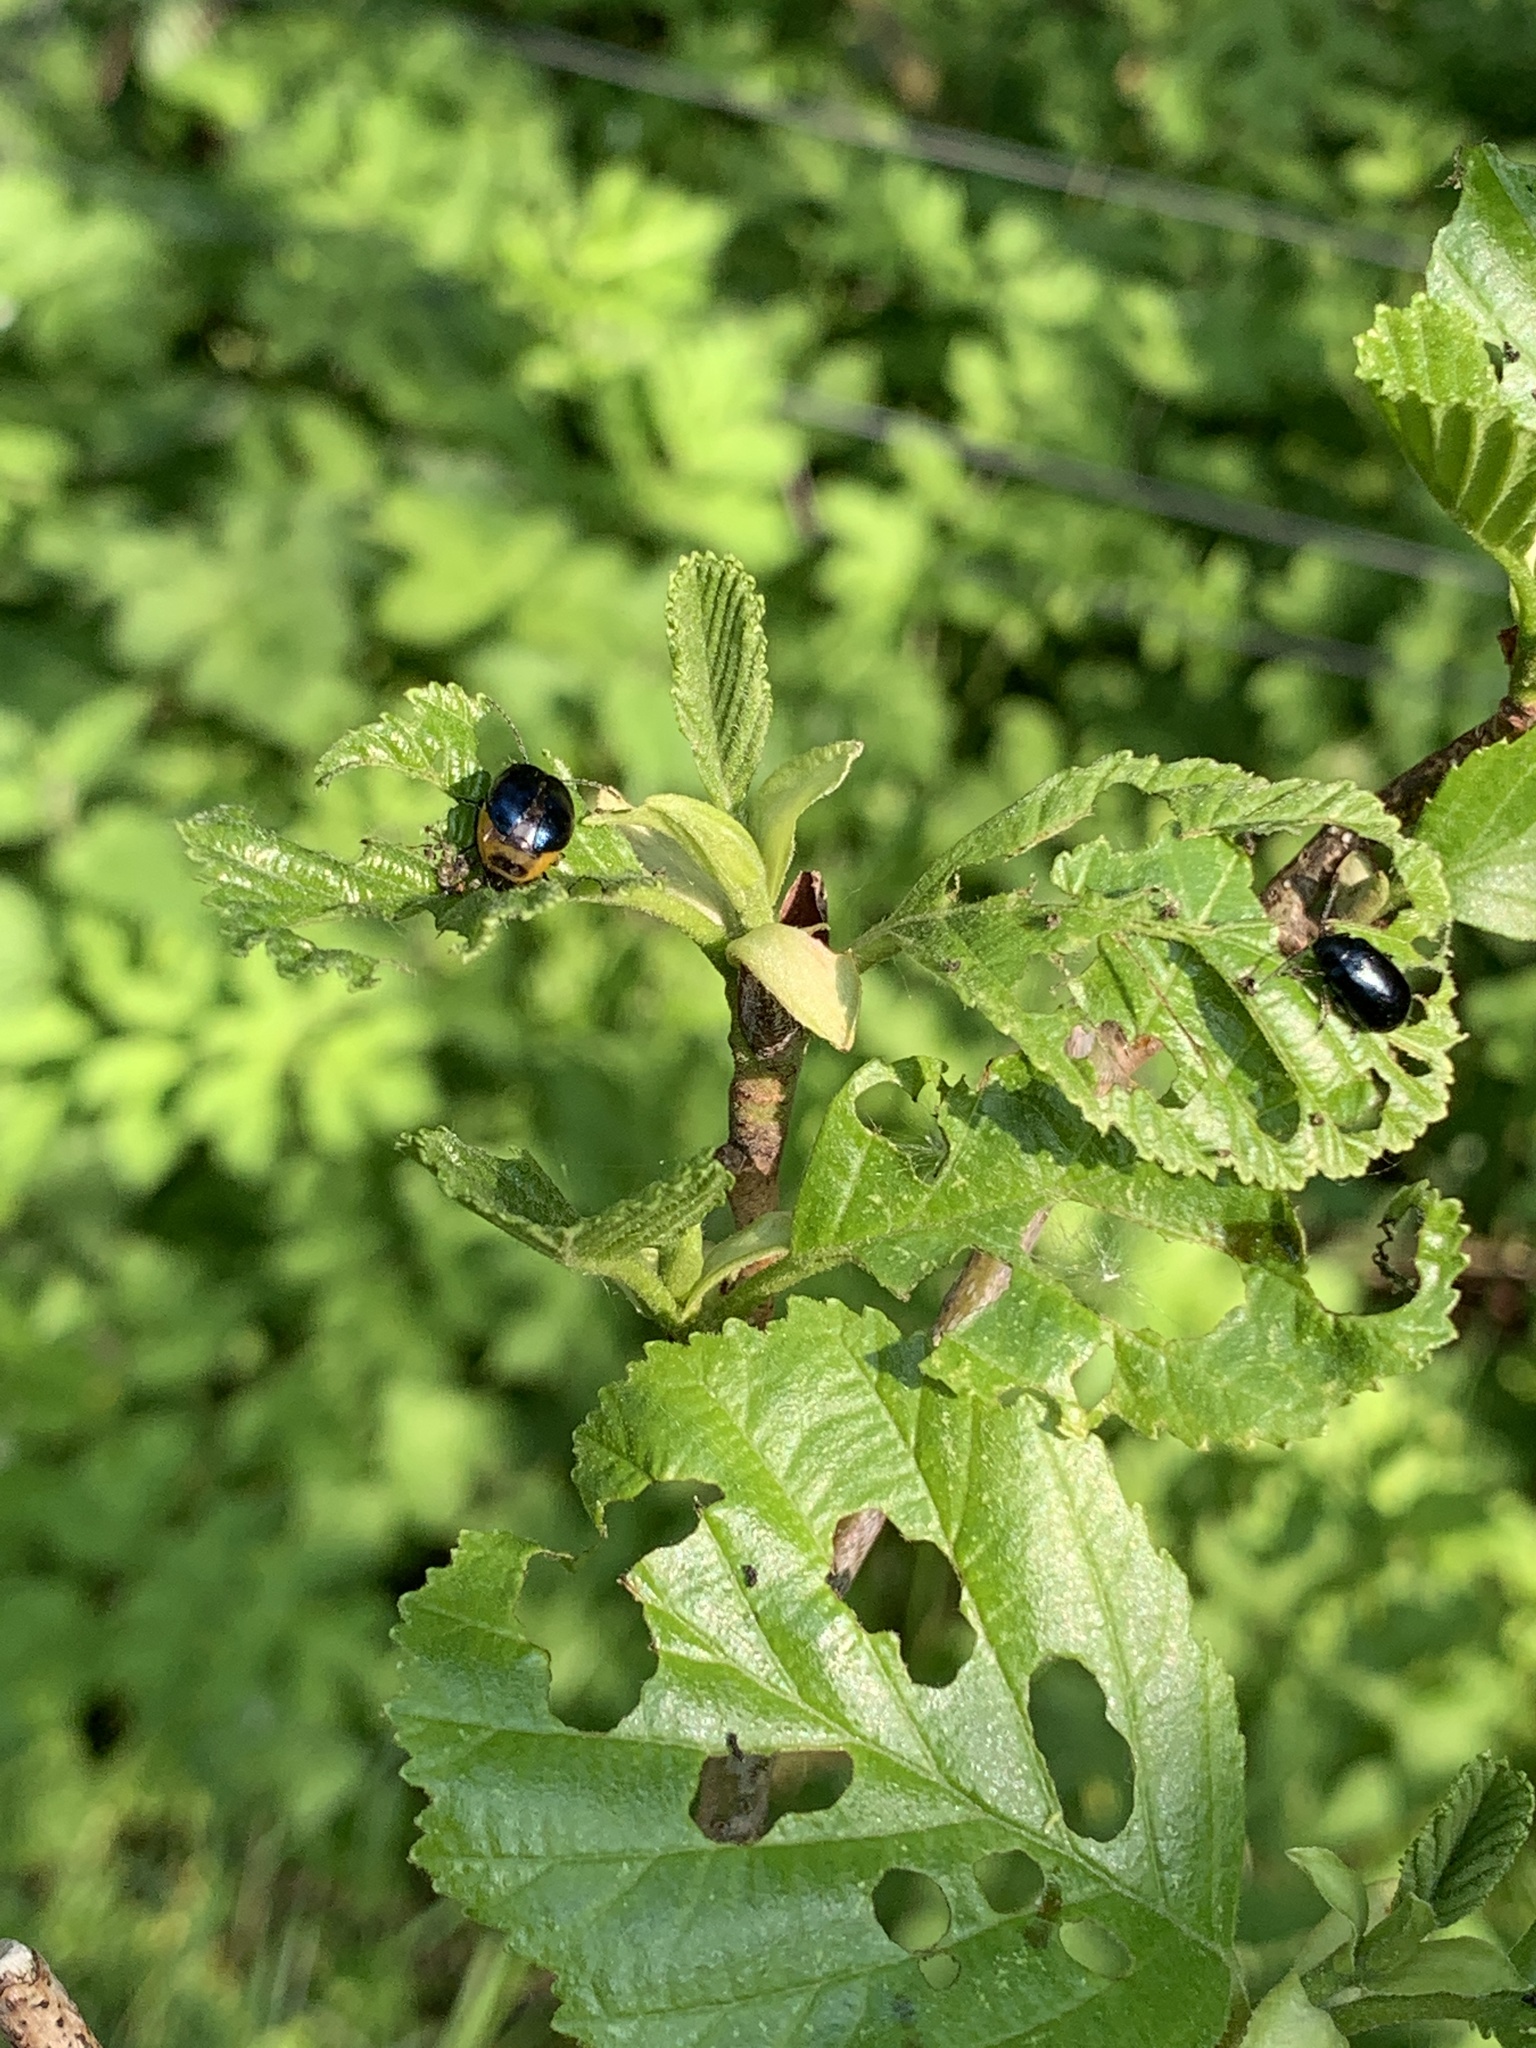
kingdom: Animalia
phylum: Arthropoda
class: Insecta
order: Coleoptera
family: Chrysomelidae
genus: Agelastica
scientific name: Agelastica alni
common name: Alder leaf beetle
